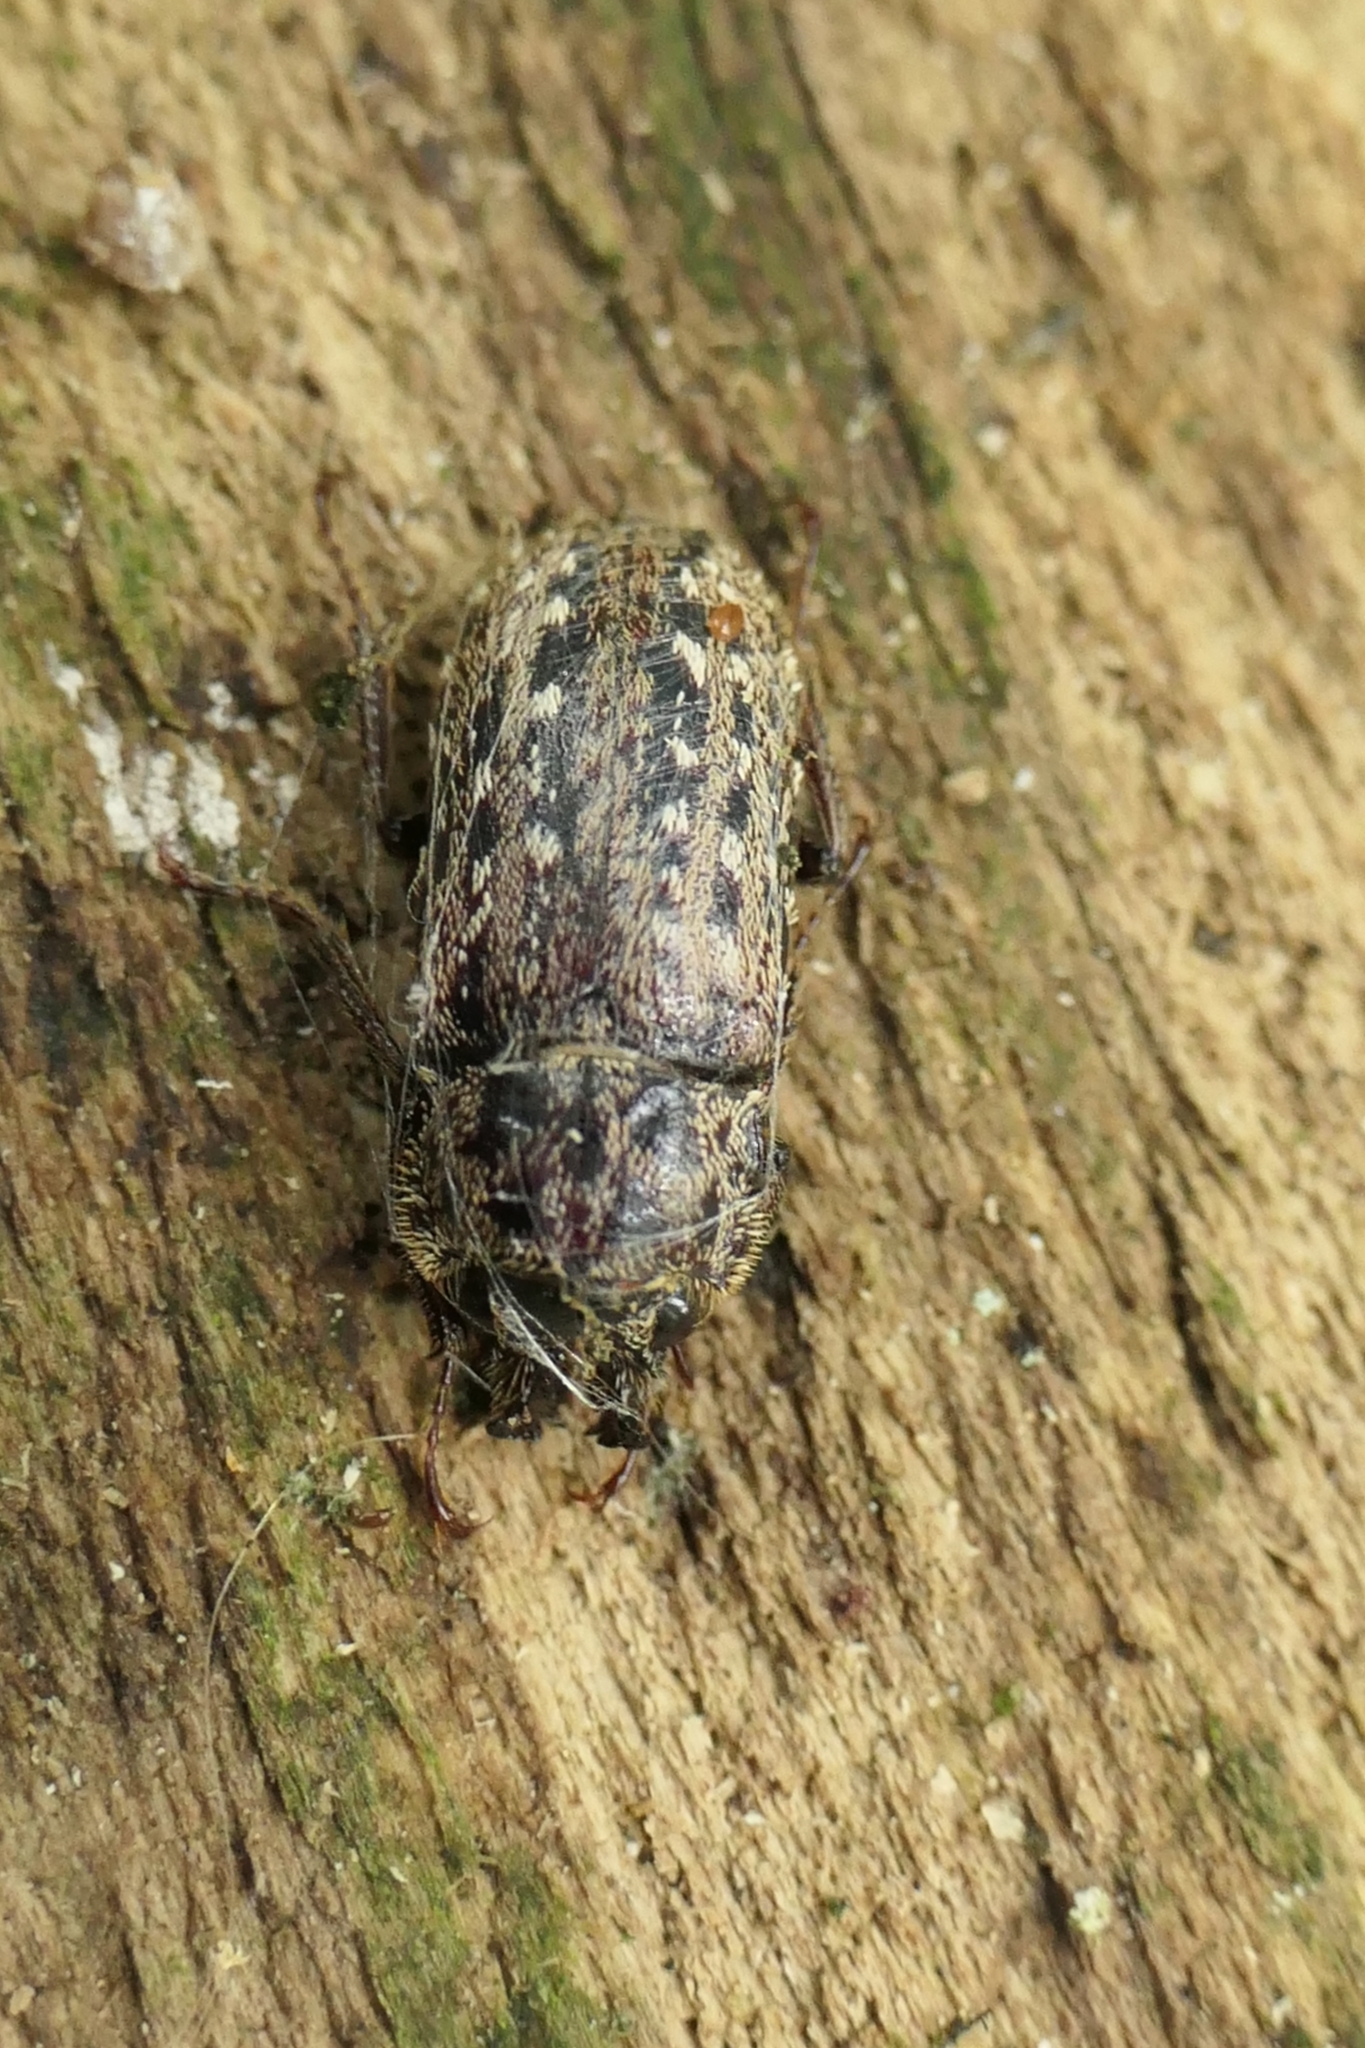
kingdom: Animalia
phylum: Arthropoda
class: Insecta
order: Coleoptera
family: Lucanidae
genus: Mitophyllus
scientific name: Mitophyllus irroratus
